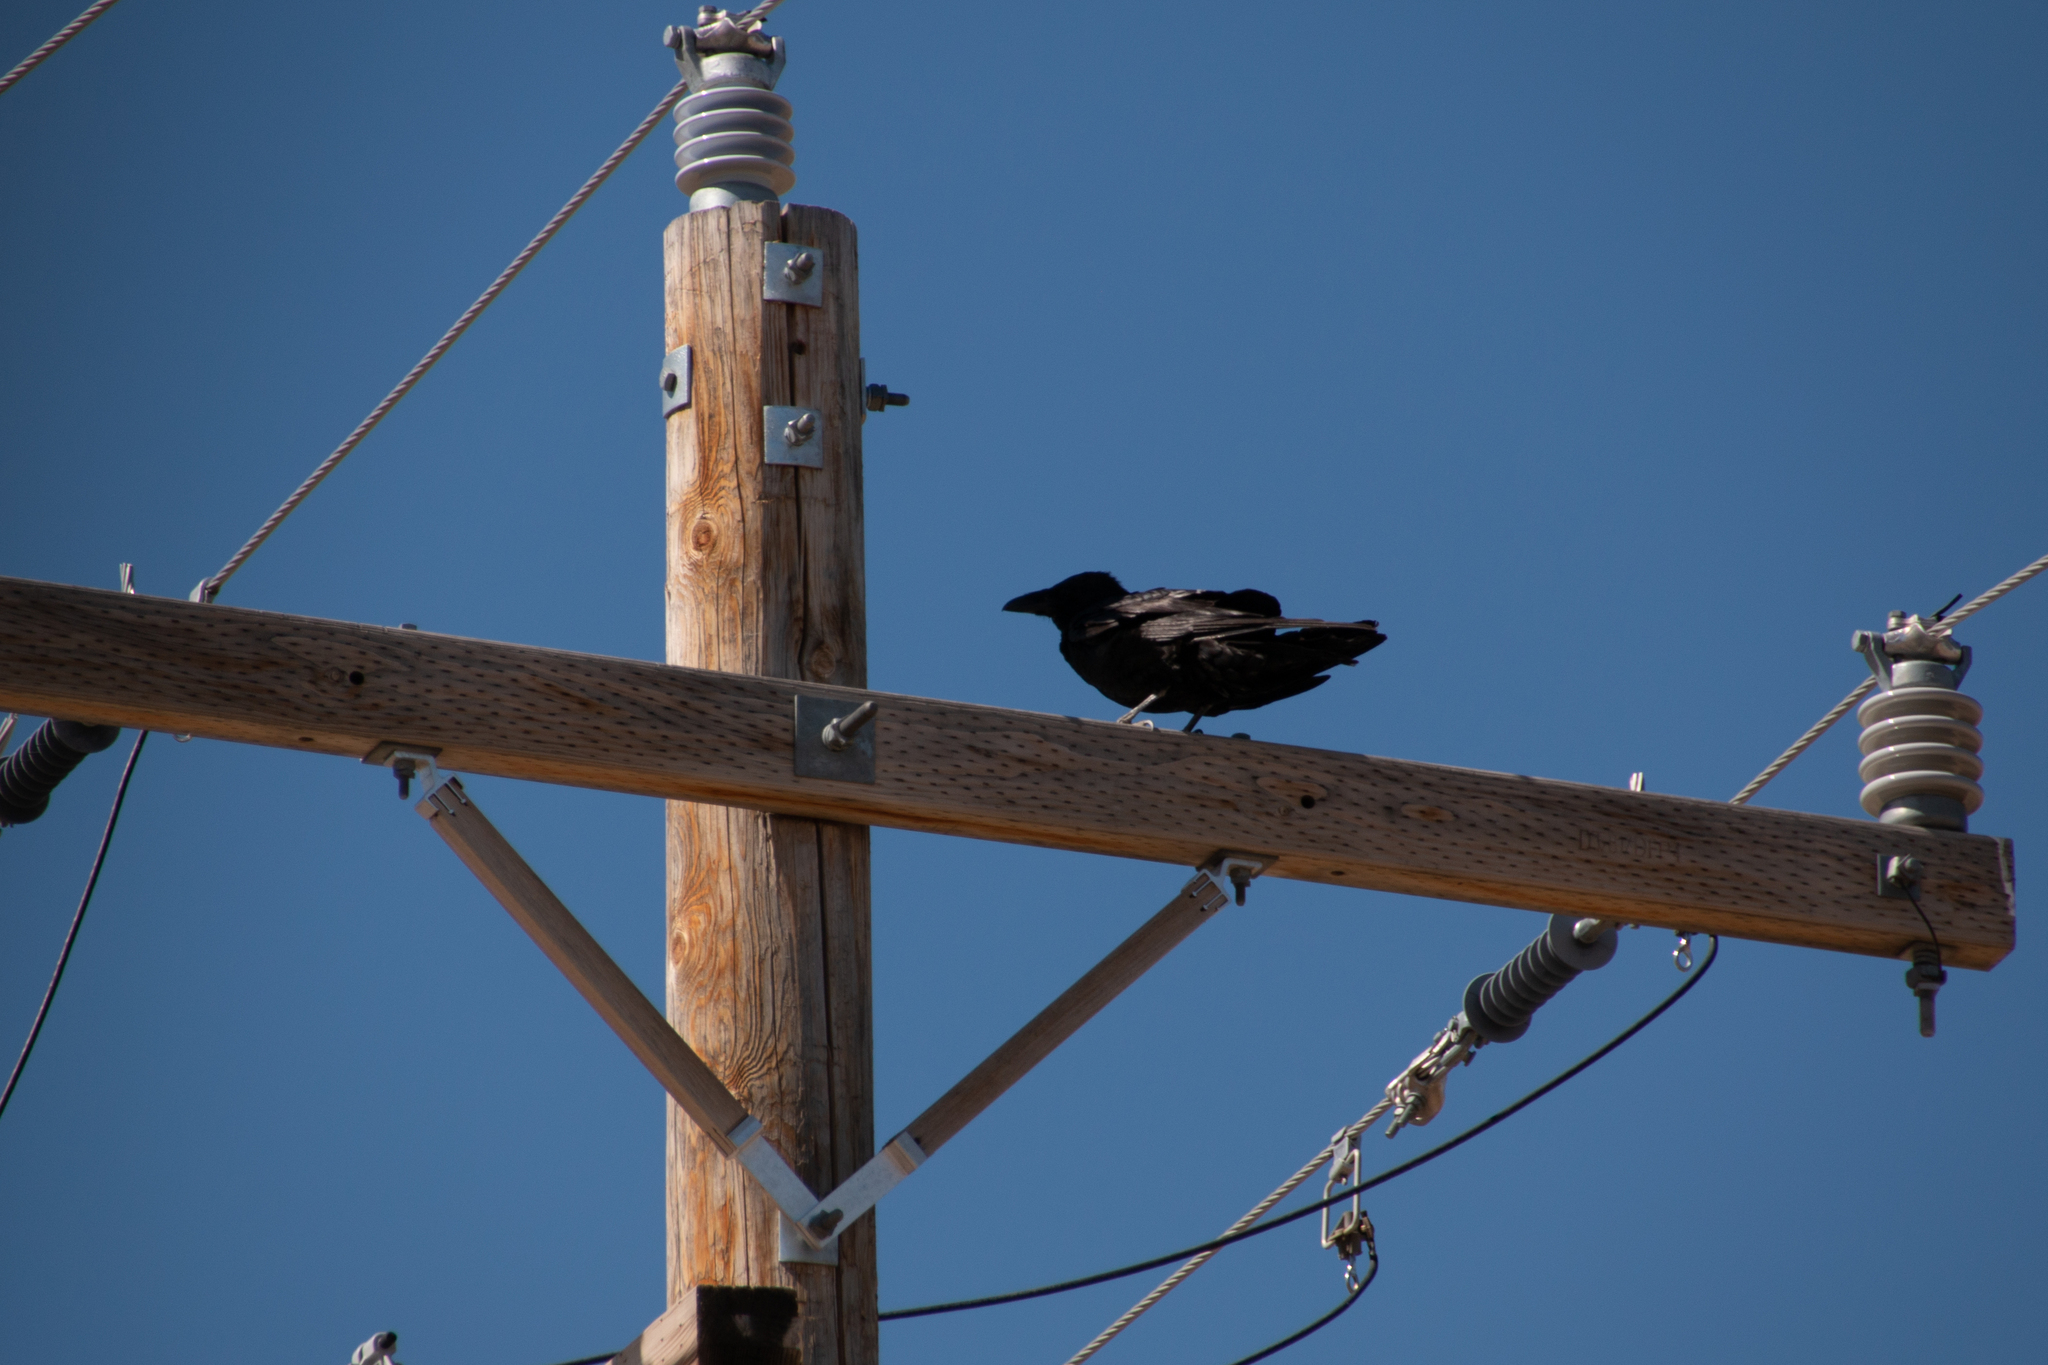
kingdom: Animalia
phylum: Chordata
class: Aves
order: Passeriformes
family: Corvidae
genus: Corvus
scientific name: Corvus corax
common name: Common raven
